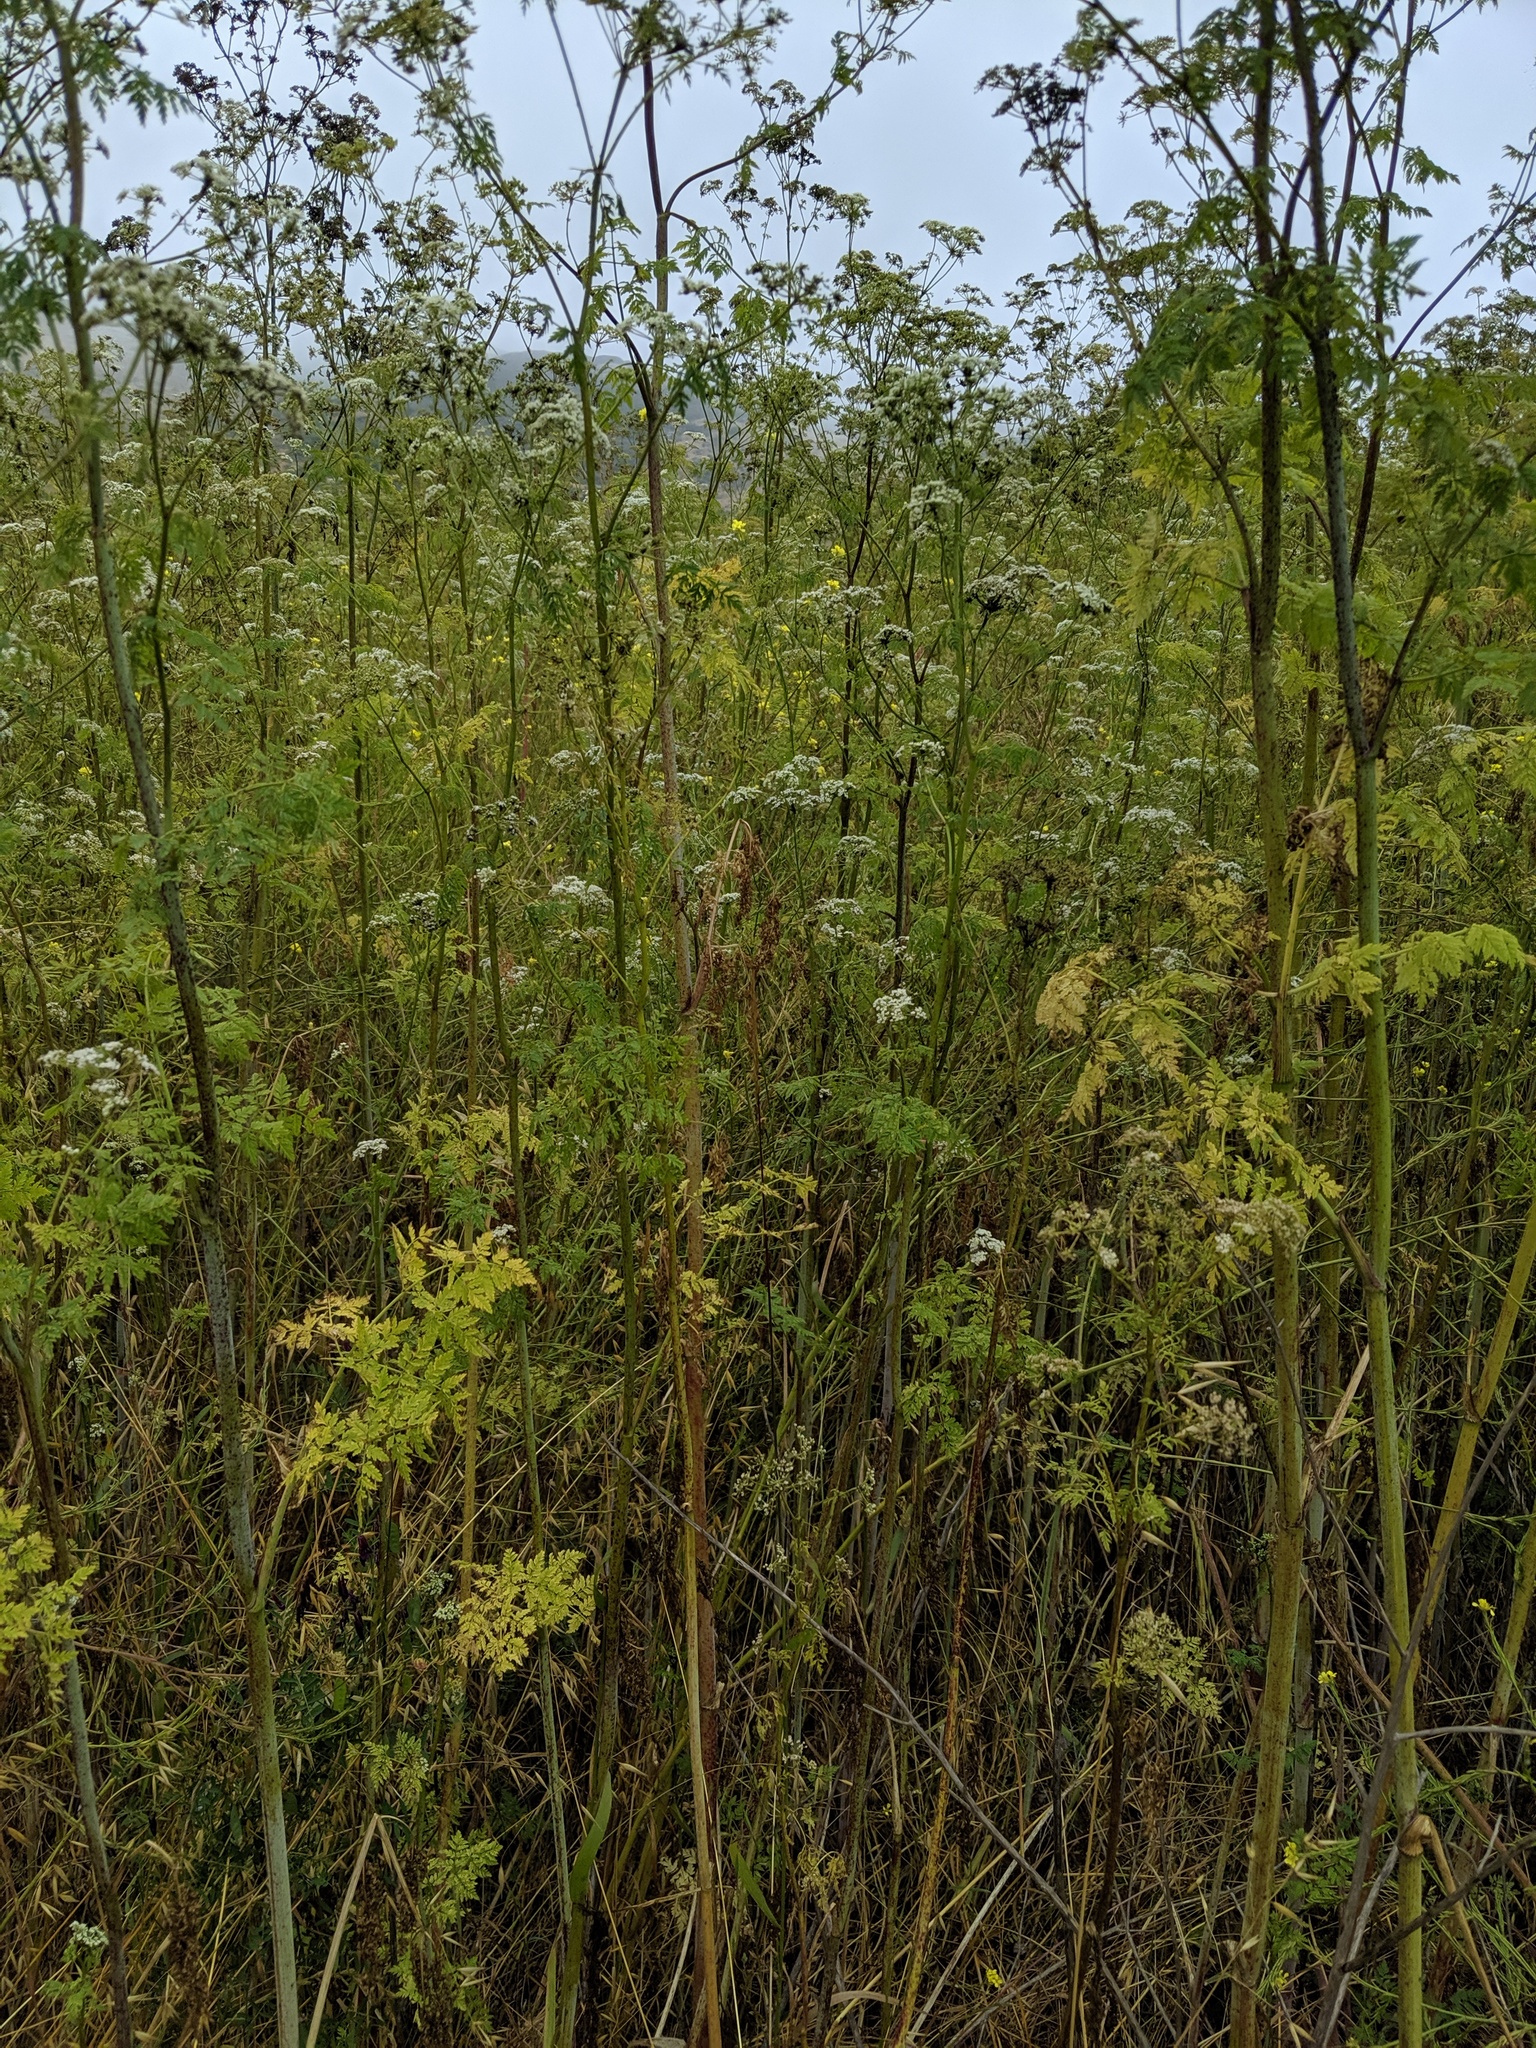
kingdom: Plantae
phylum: Tracheophyta
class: Magnoliopsida
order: Apiales
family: Apiaceae
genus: Conium
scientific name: Conium maculatum
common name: Hemlock
